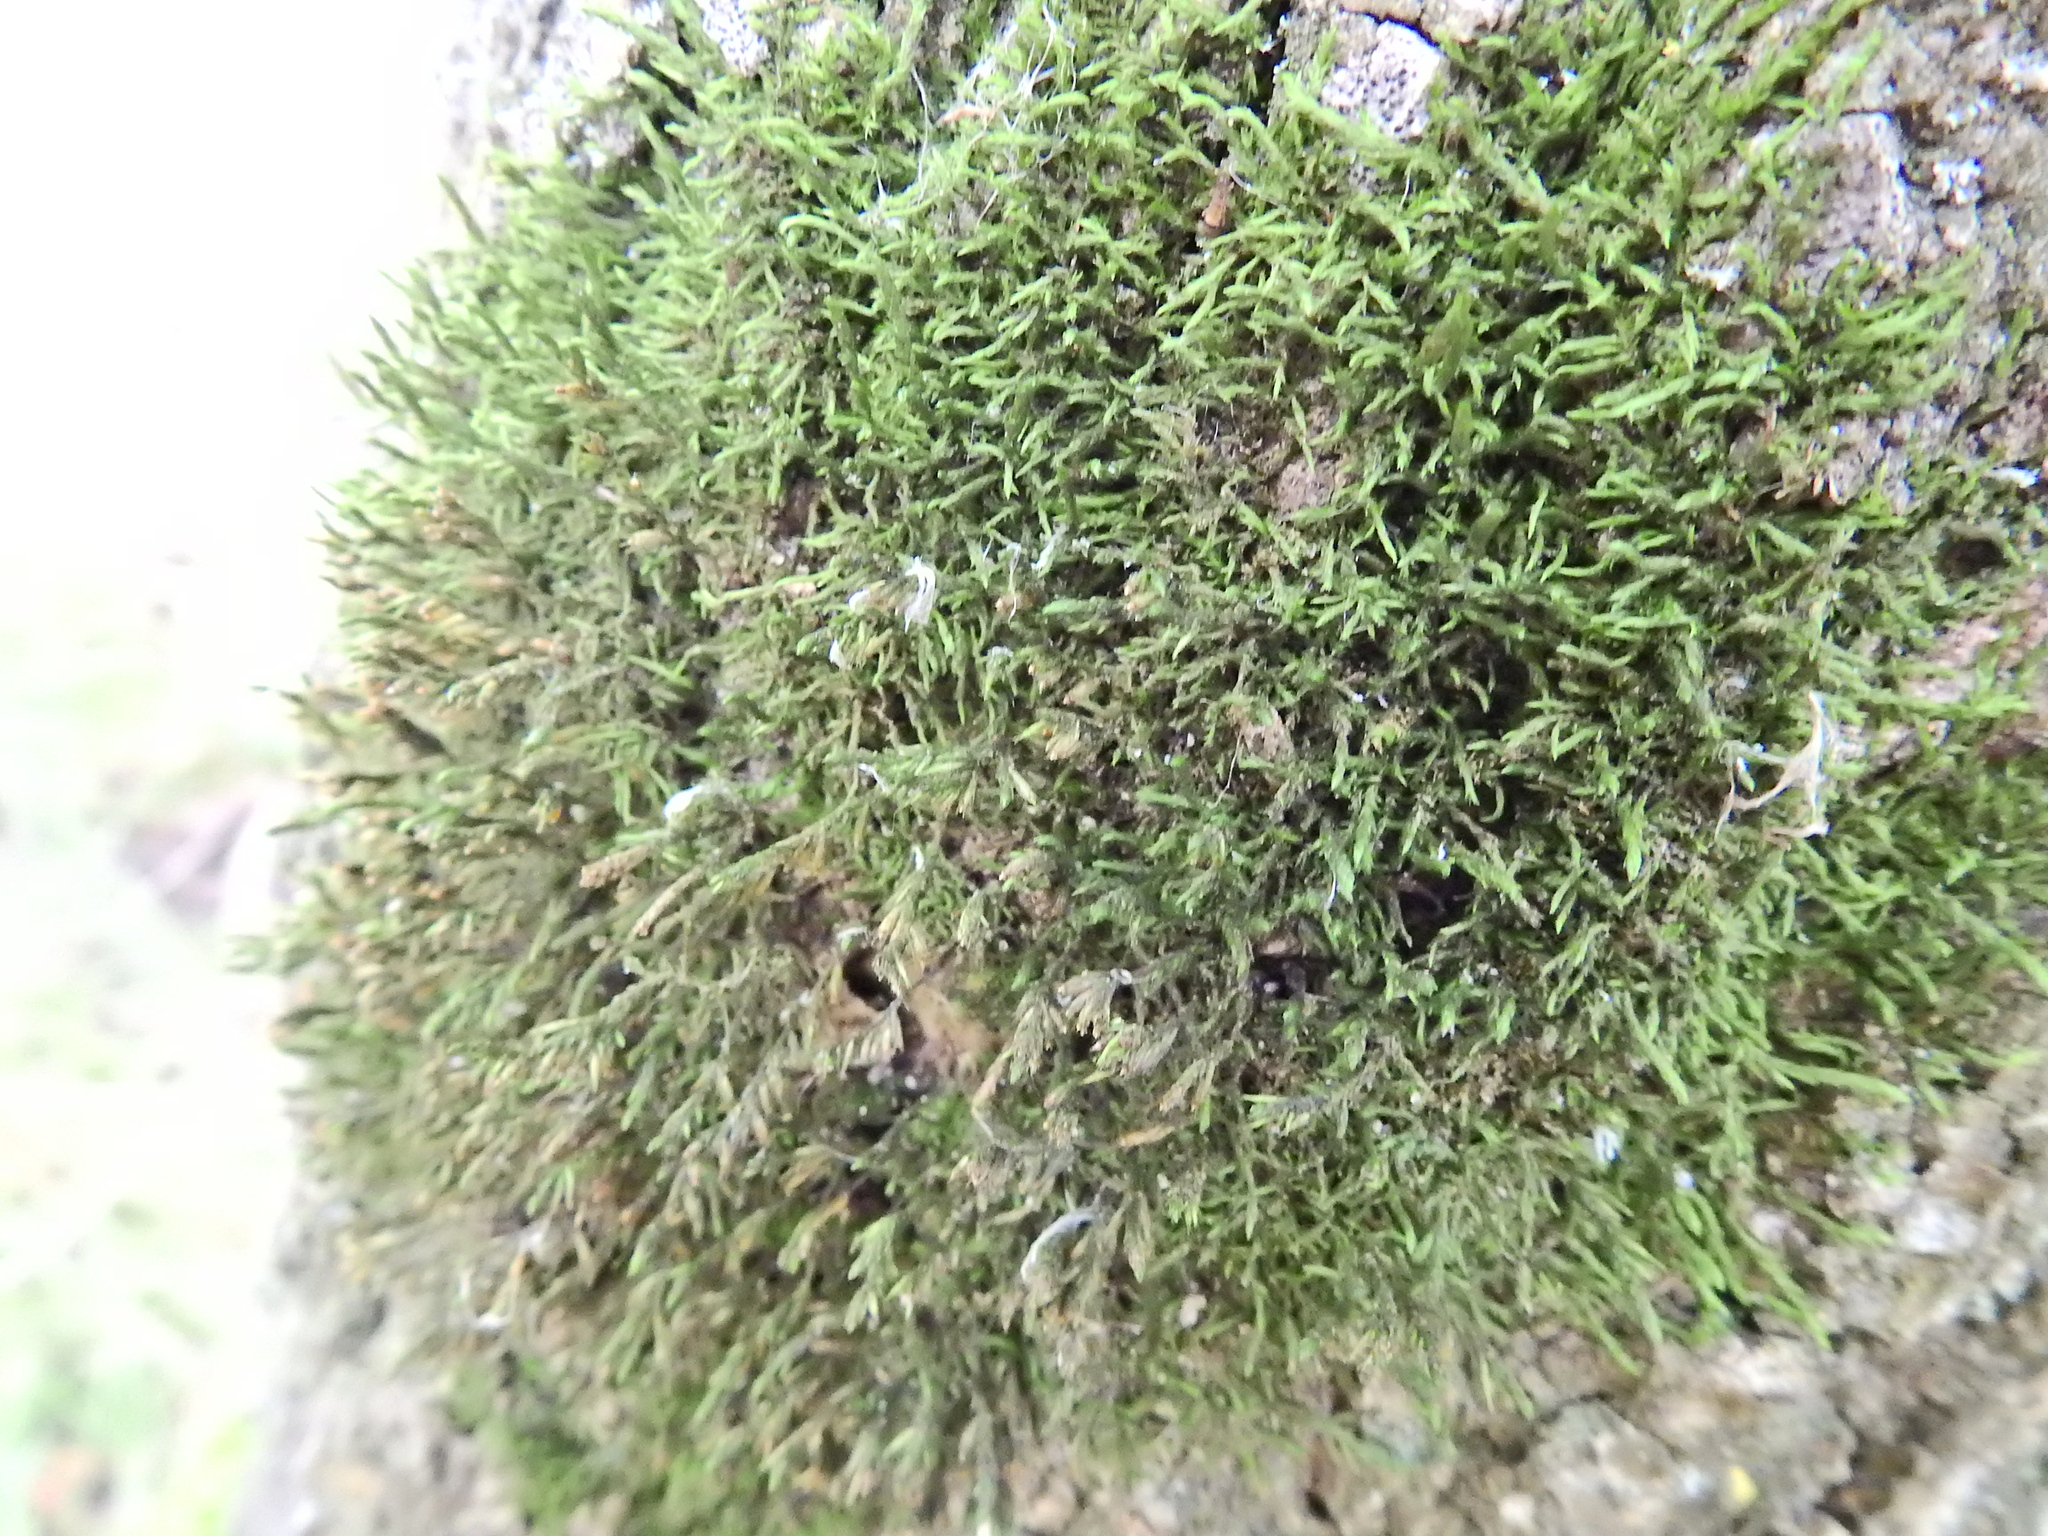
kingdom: Plantae
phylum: Bryophyta
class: Bryopsida
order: Hypnales
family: Cryphaeaceae
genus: Cryphaea
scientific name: Cryphaea heteromalla
